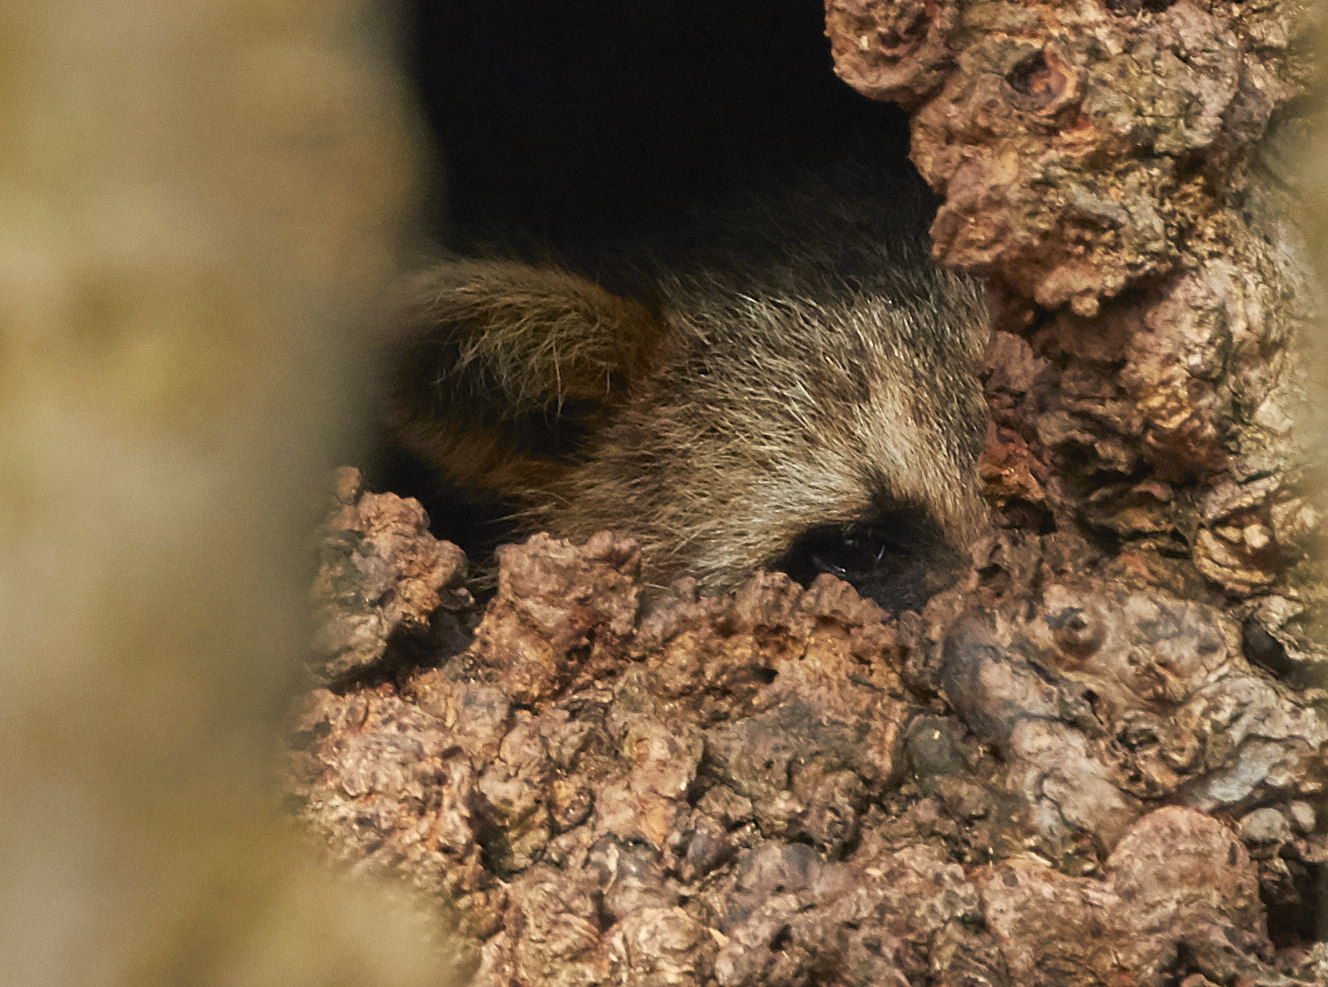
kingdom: Animalia
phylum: Chordata
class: Mammalia
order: Carnivora
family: Procyonidae
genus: Procyon
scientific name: Procyon lotor
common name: Raccoon
